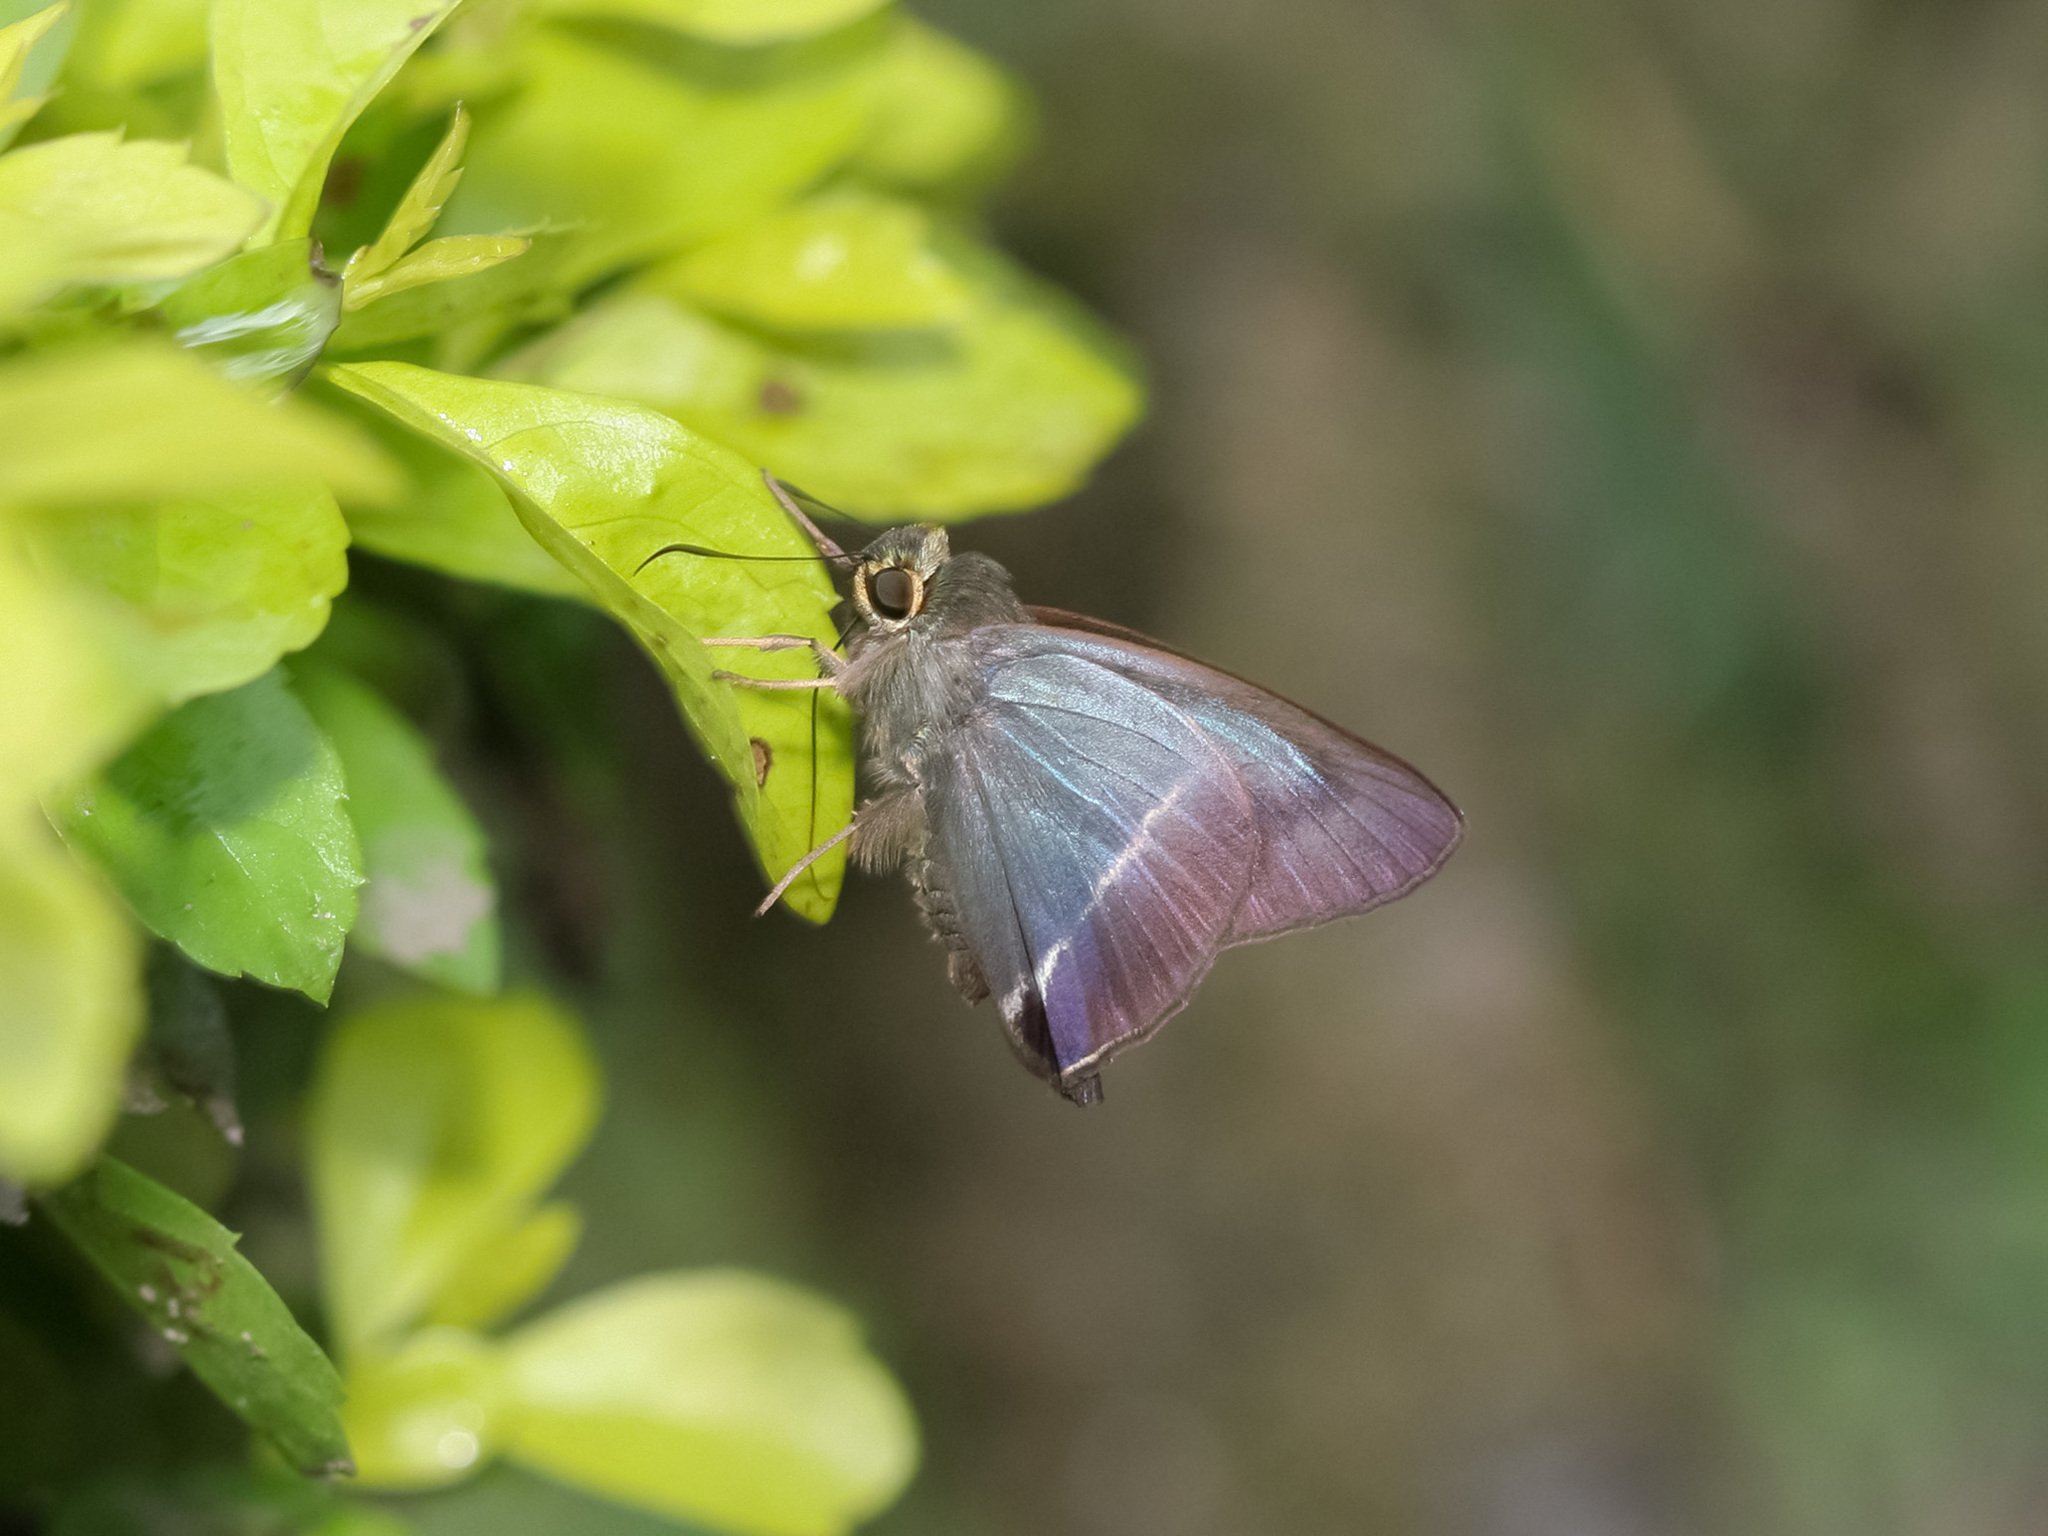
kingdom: Animalia
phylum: Arthropoda
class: Insecta
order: Lepidoptera
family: Hesperiidae
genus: Hasora
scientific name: Hasora taminatus
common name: White banded awl
